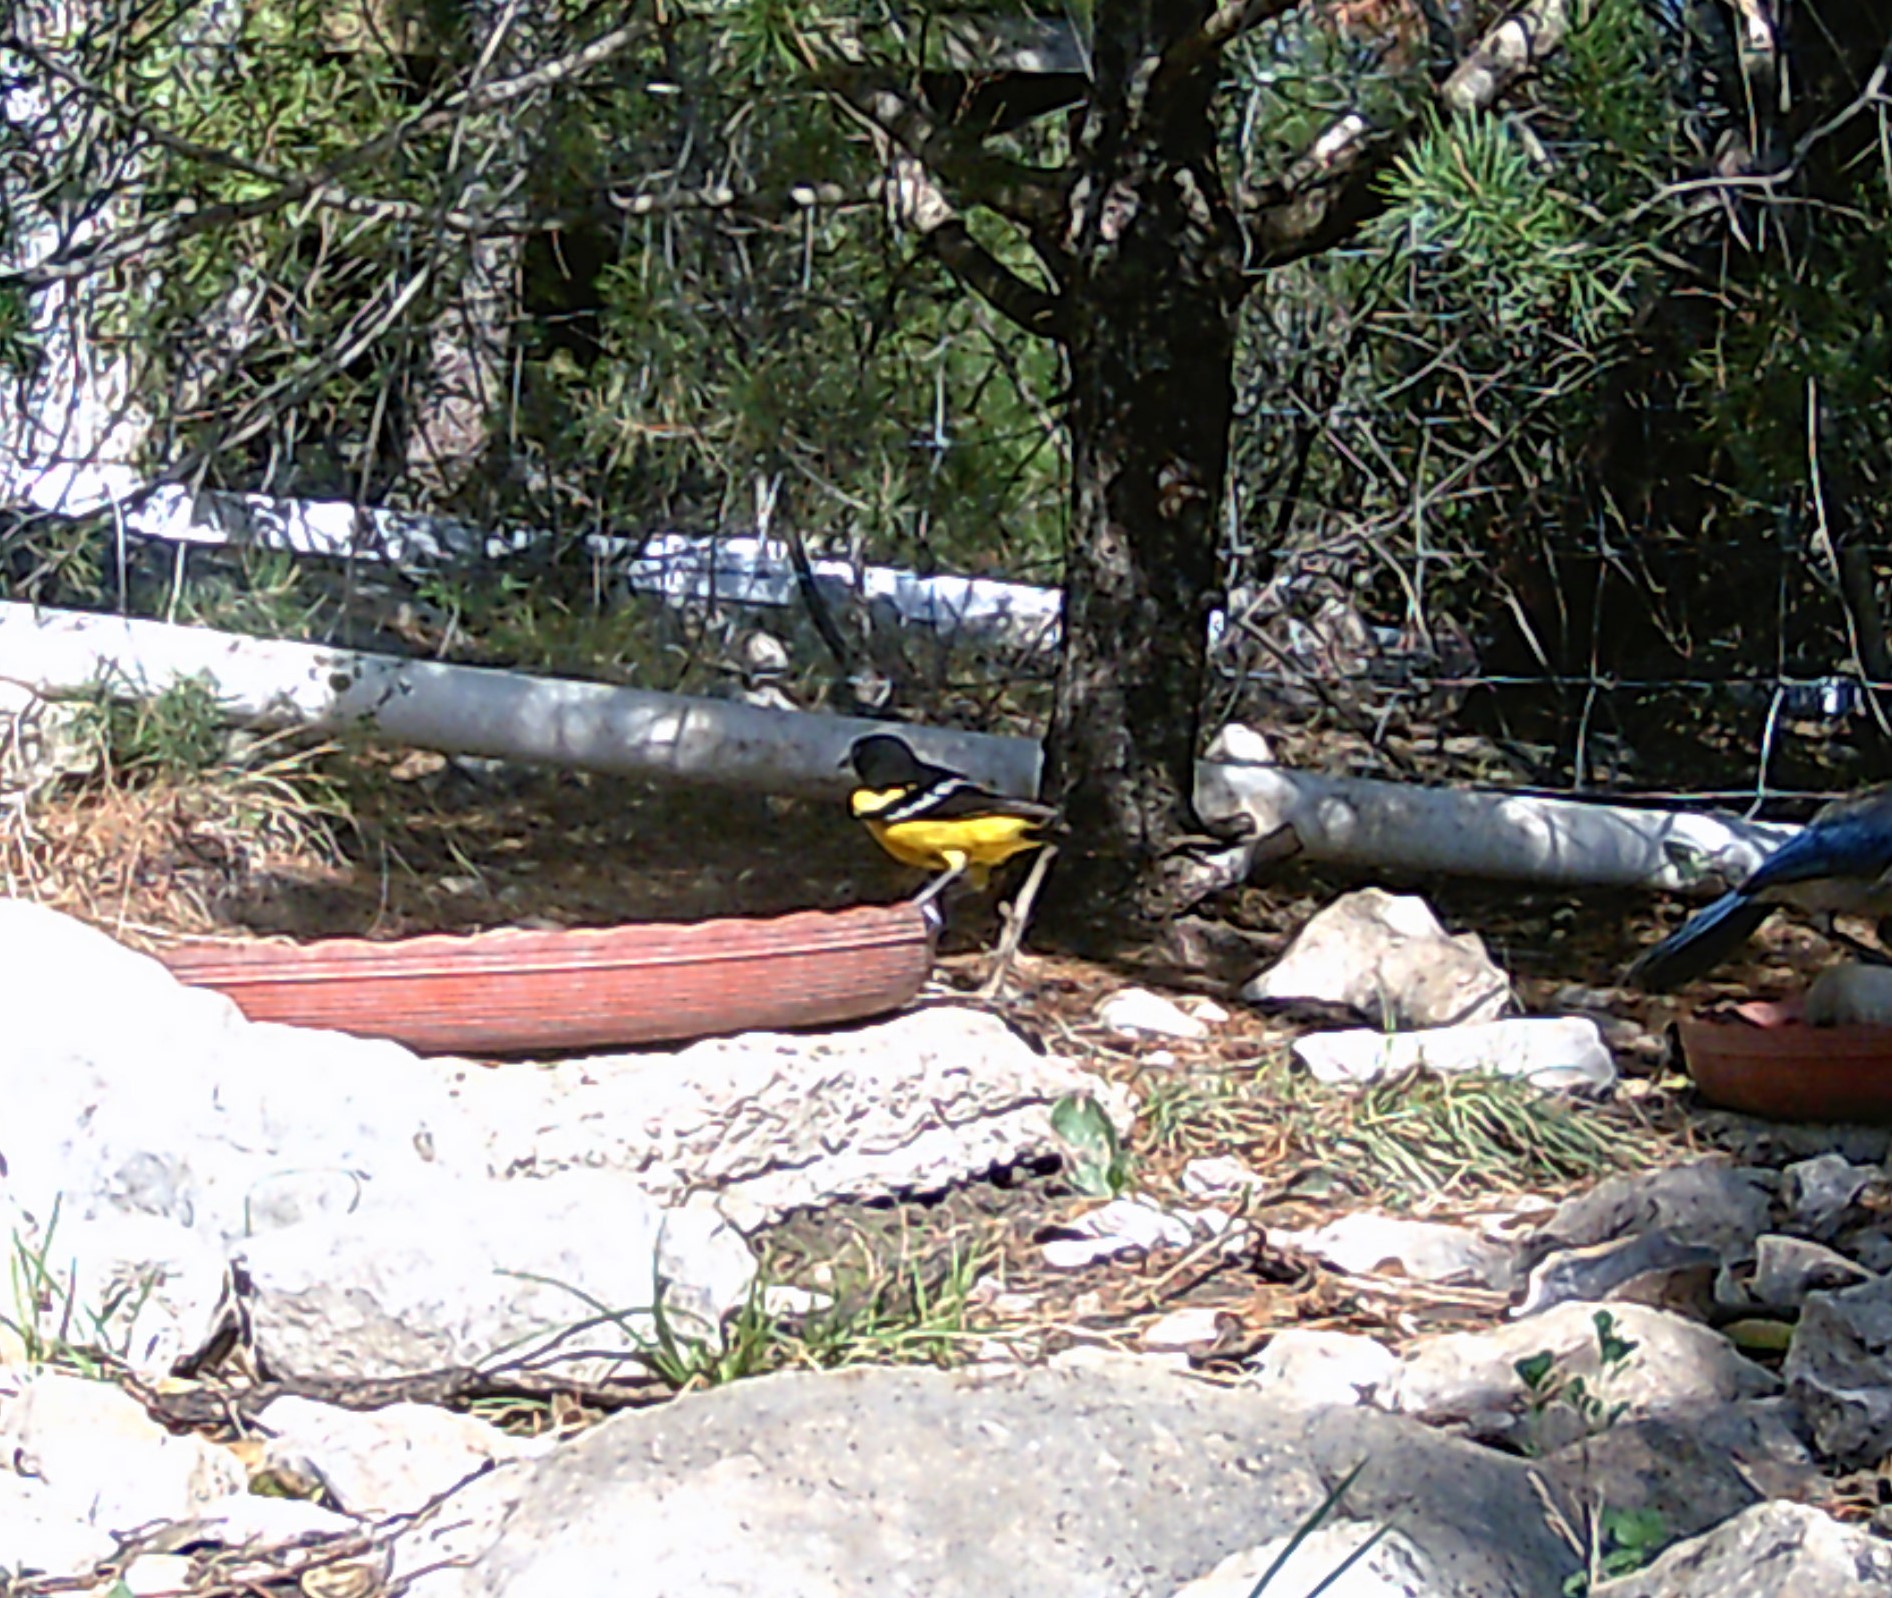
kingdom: Animalia
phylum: Chordata
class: Aves
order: Passeriformes
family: Icteridae
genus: Icterus
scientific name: Icterus parisorum
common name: Scott's oriole
